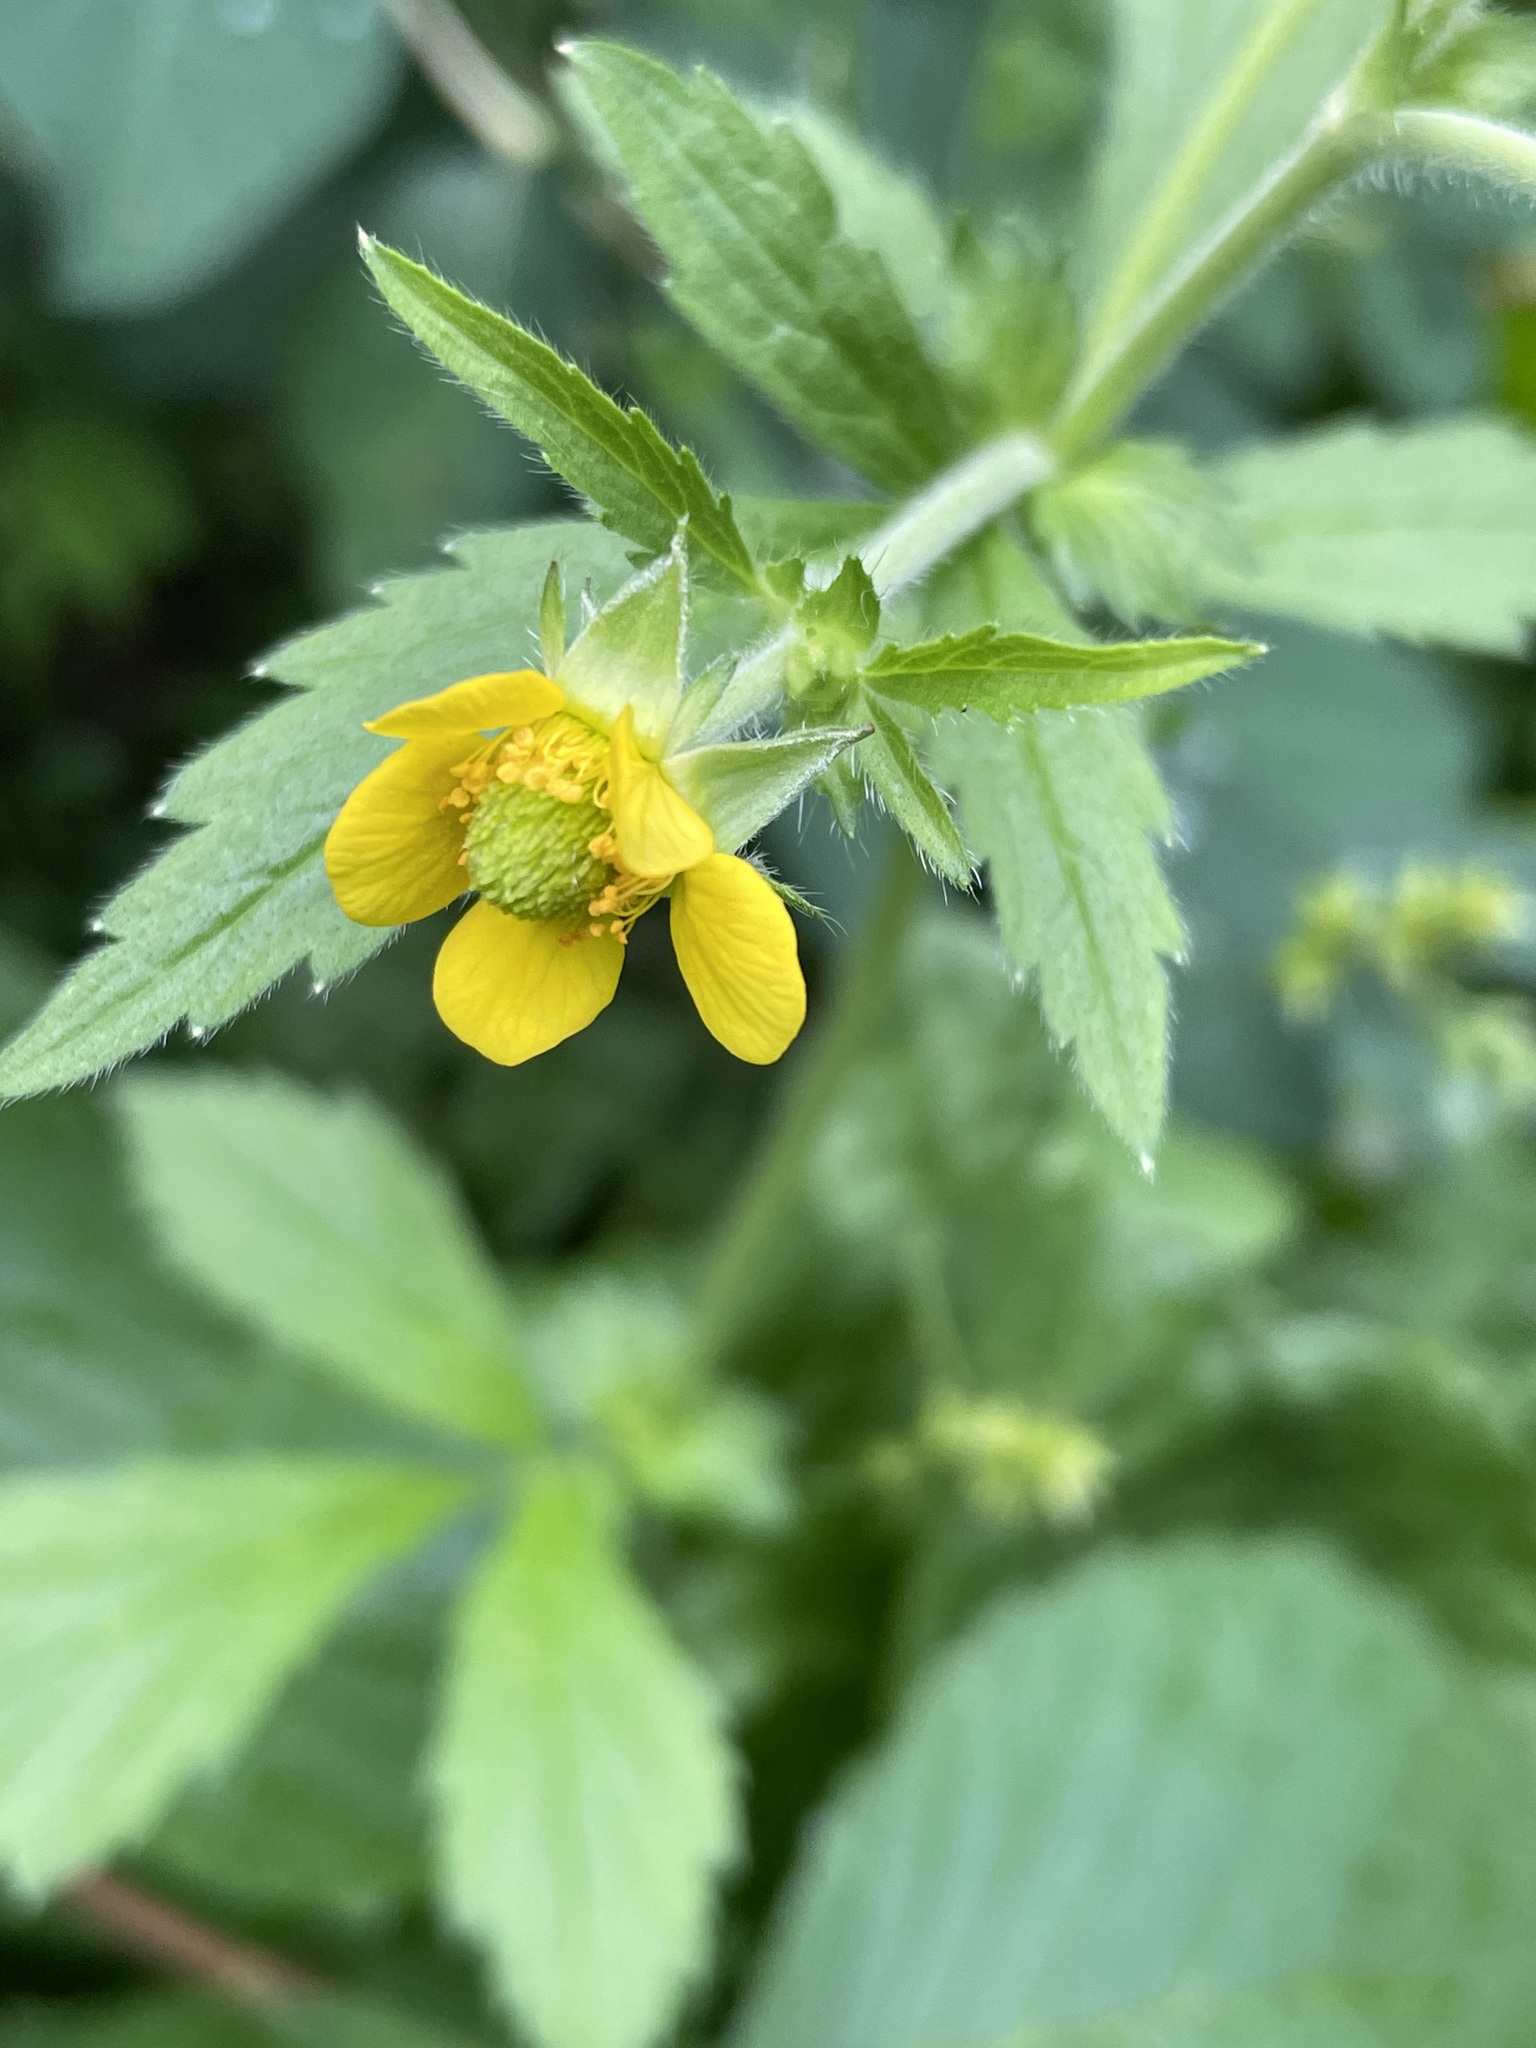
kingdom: Plantae
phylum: Tracheophyta
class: Magnoliopsida
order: Rosales
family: Rosaceae
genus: Geum
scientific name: Geum aleppicum
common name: Yellow avens
